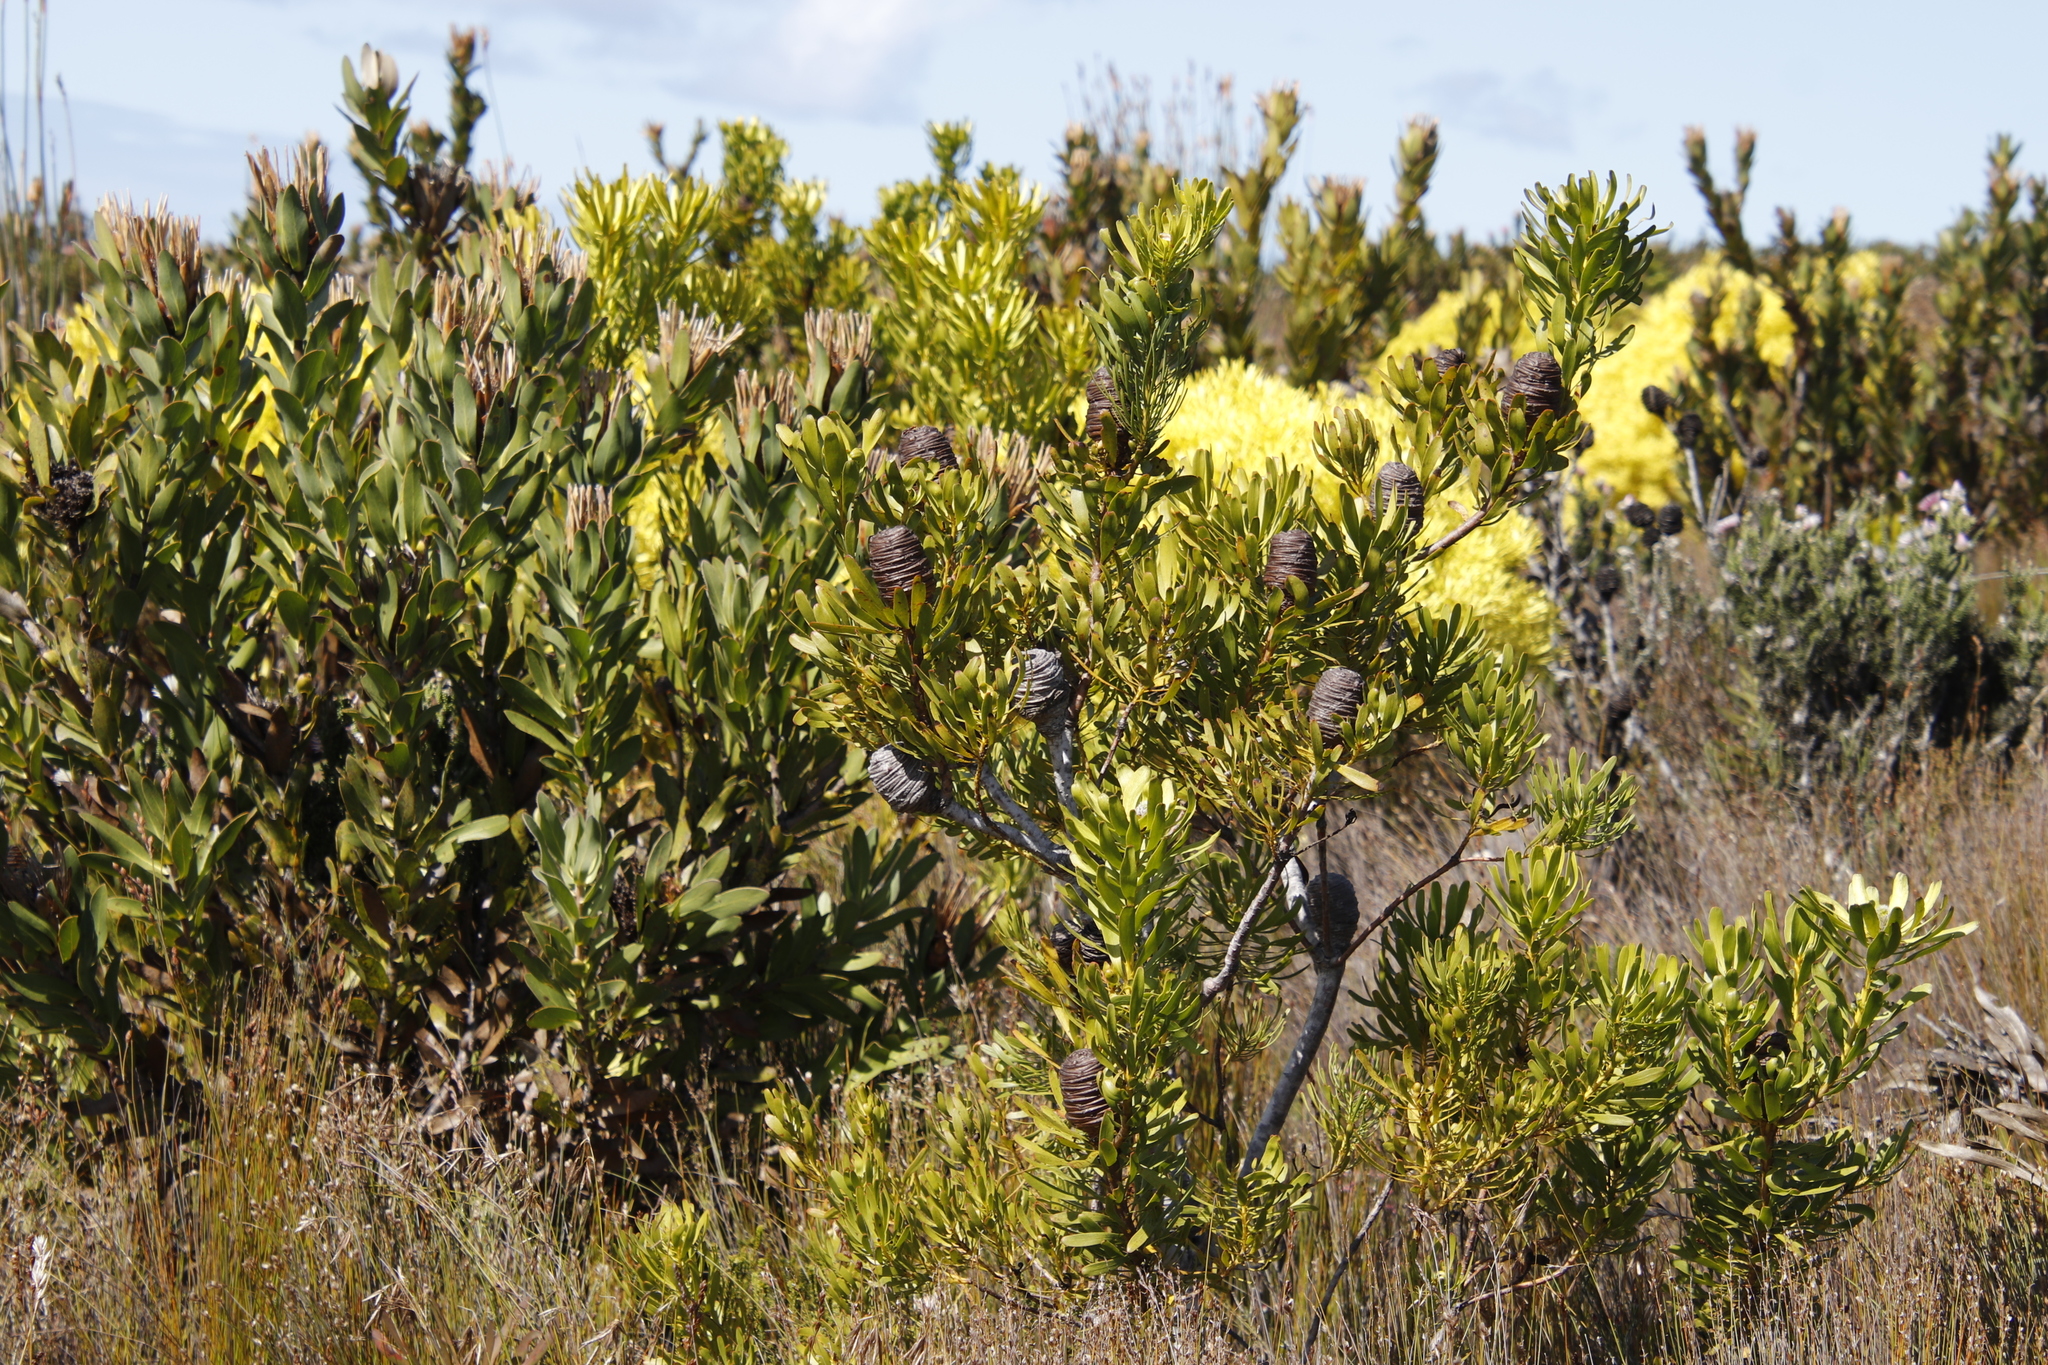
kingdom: Plantae
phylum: Tracheophyta
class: Magnoliopsida
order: Proteales
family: Proteaceae
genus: Leucadendron
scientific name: Leucadendron platyspermum
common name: Plate-seed conebush
